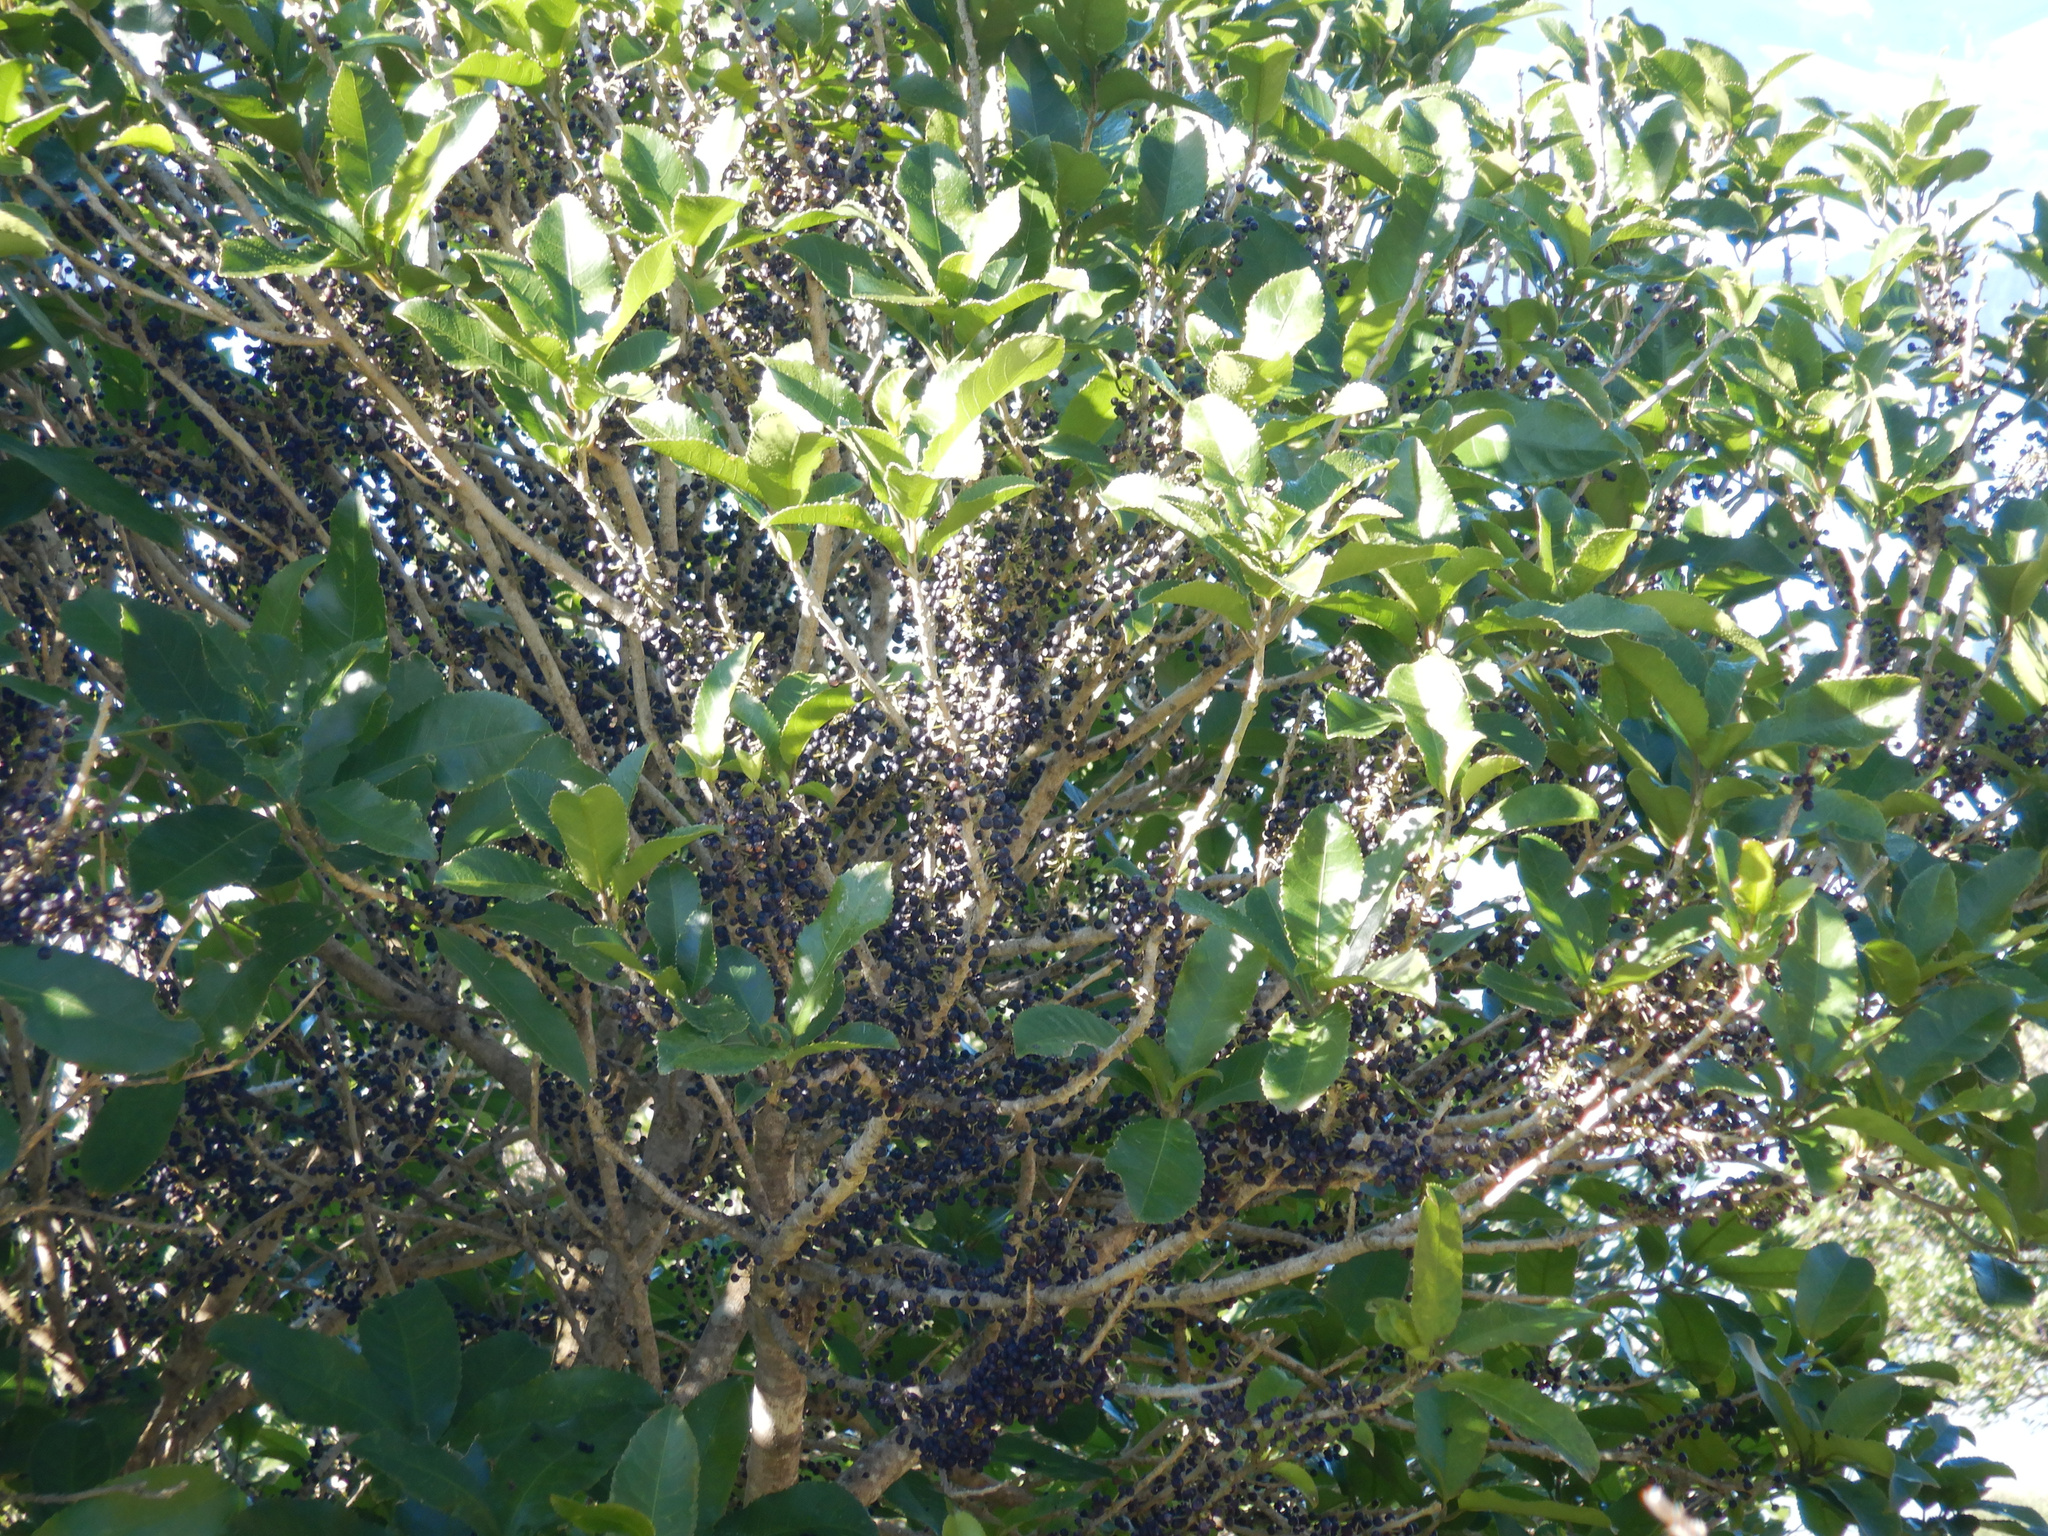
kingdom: Plantae
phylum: Tracheophyta
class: Magnoliopsida
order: Malpighiales
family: Violaceae
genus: Melicytus
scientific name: Melicytus ramiflorus
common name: Mahoe
